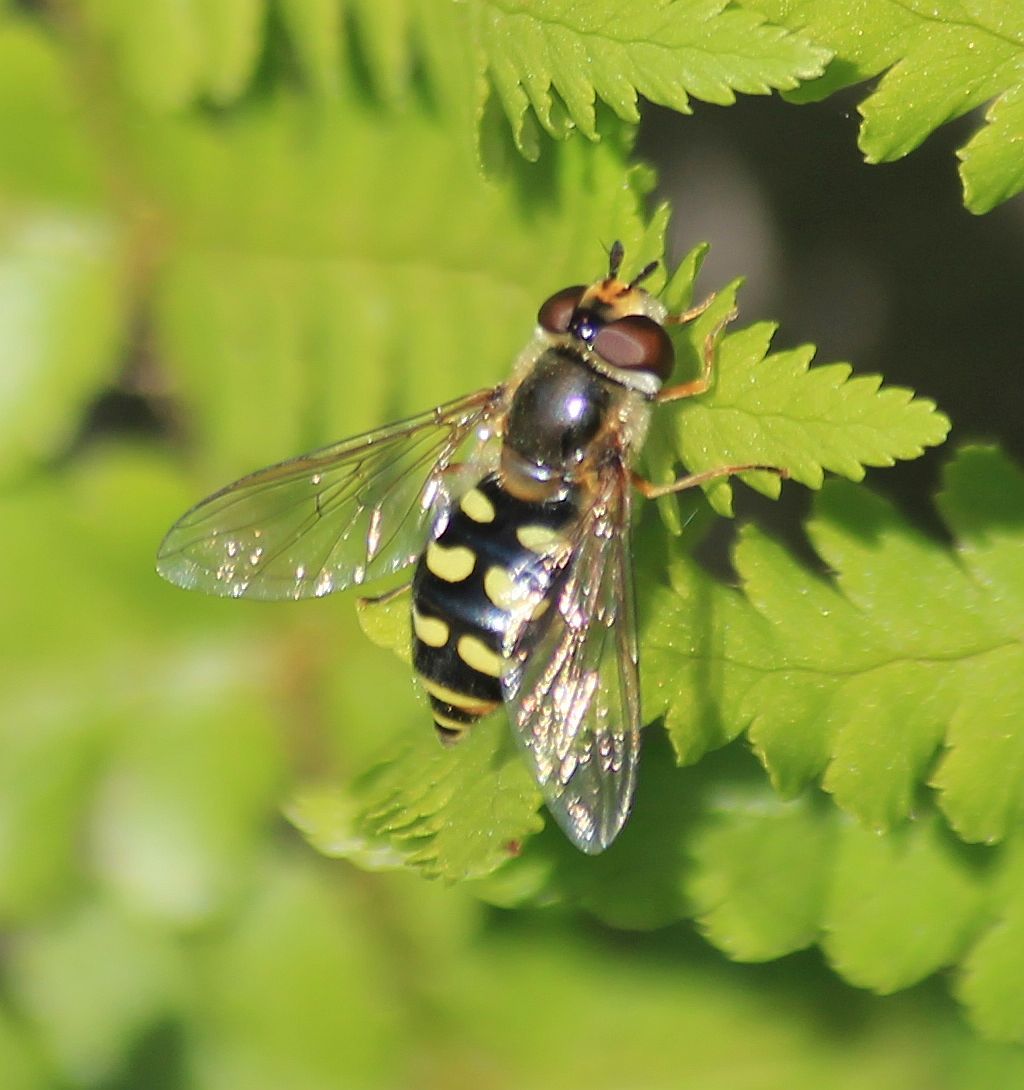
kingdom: Animalia
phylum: Arthropoda
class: Insecta
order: Diptera
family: Syrphidae
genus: Eupeodes
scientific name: Eupeodes luniger
